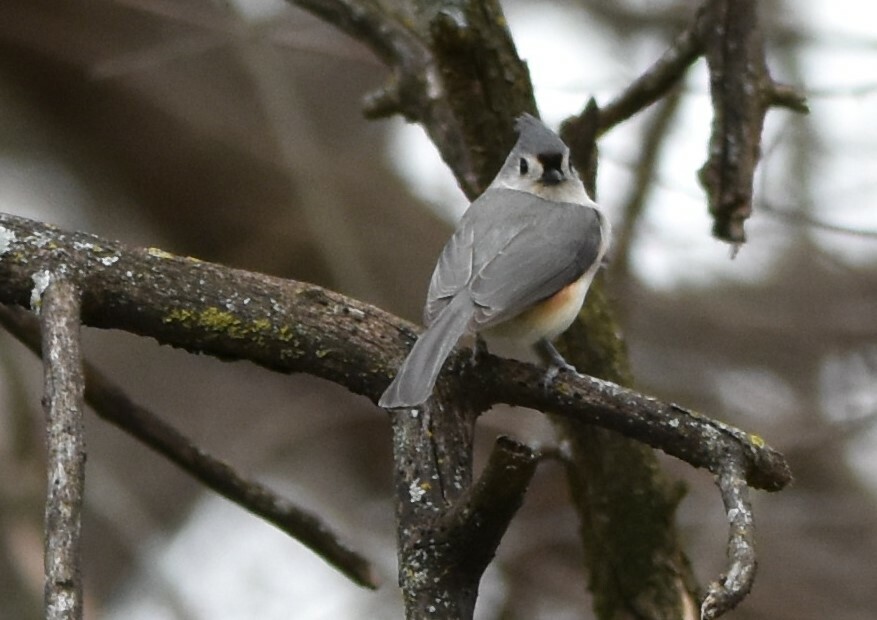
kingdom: Animalia
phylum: Chordata
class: Aves
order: Passeriformes
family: Paridae
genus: Baeolophus
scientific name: Baeolophus bicolor
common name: Tufted titmouse
